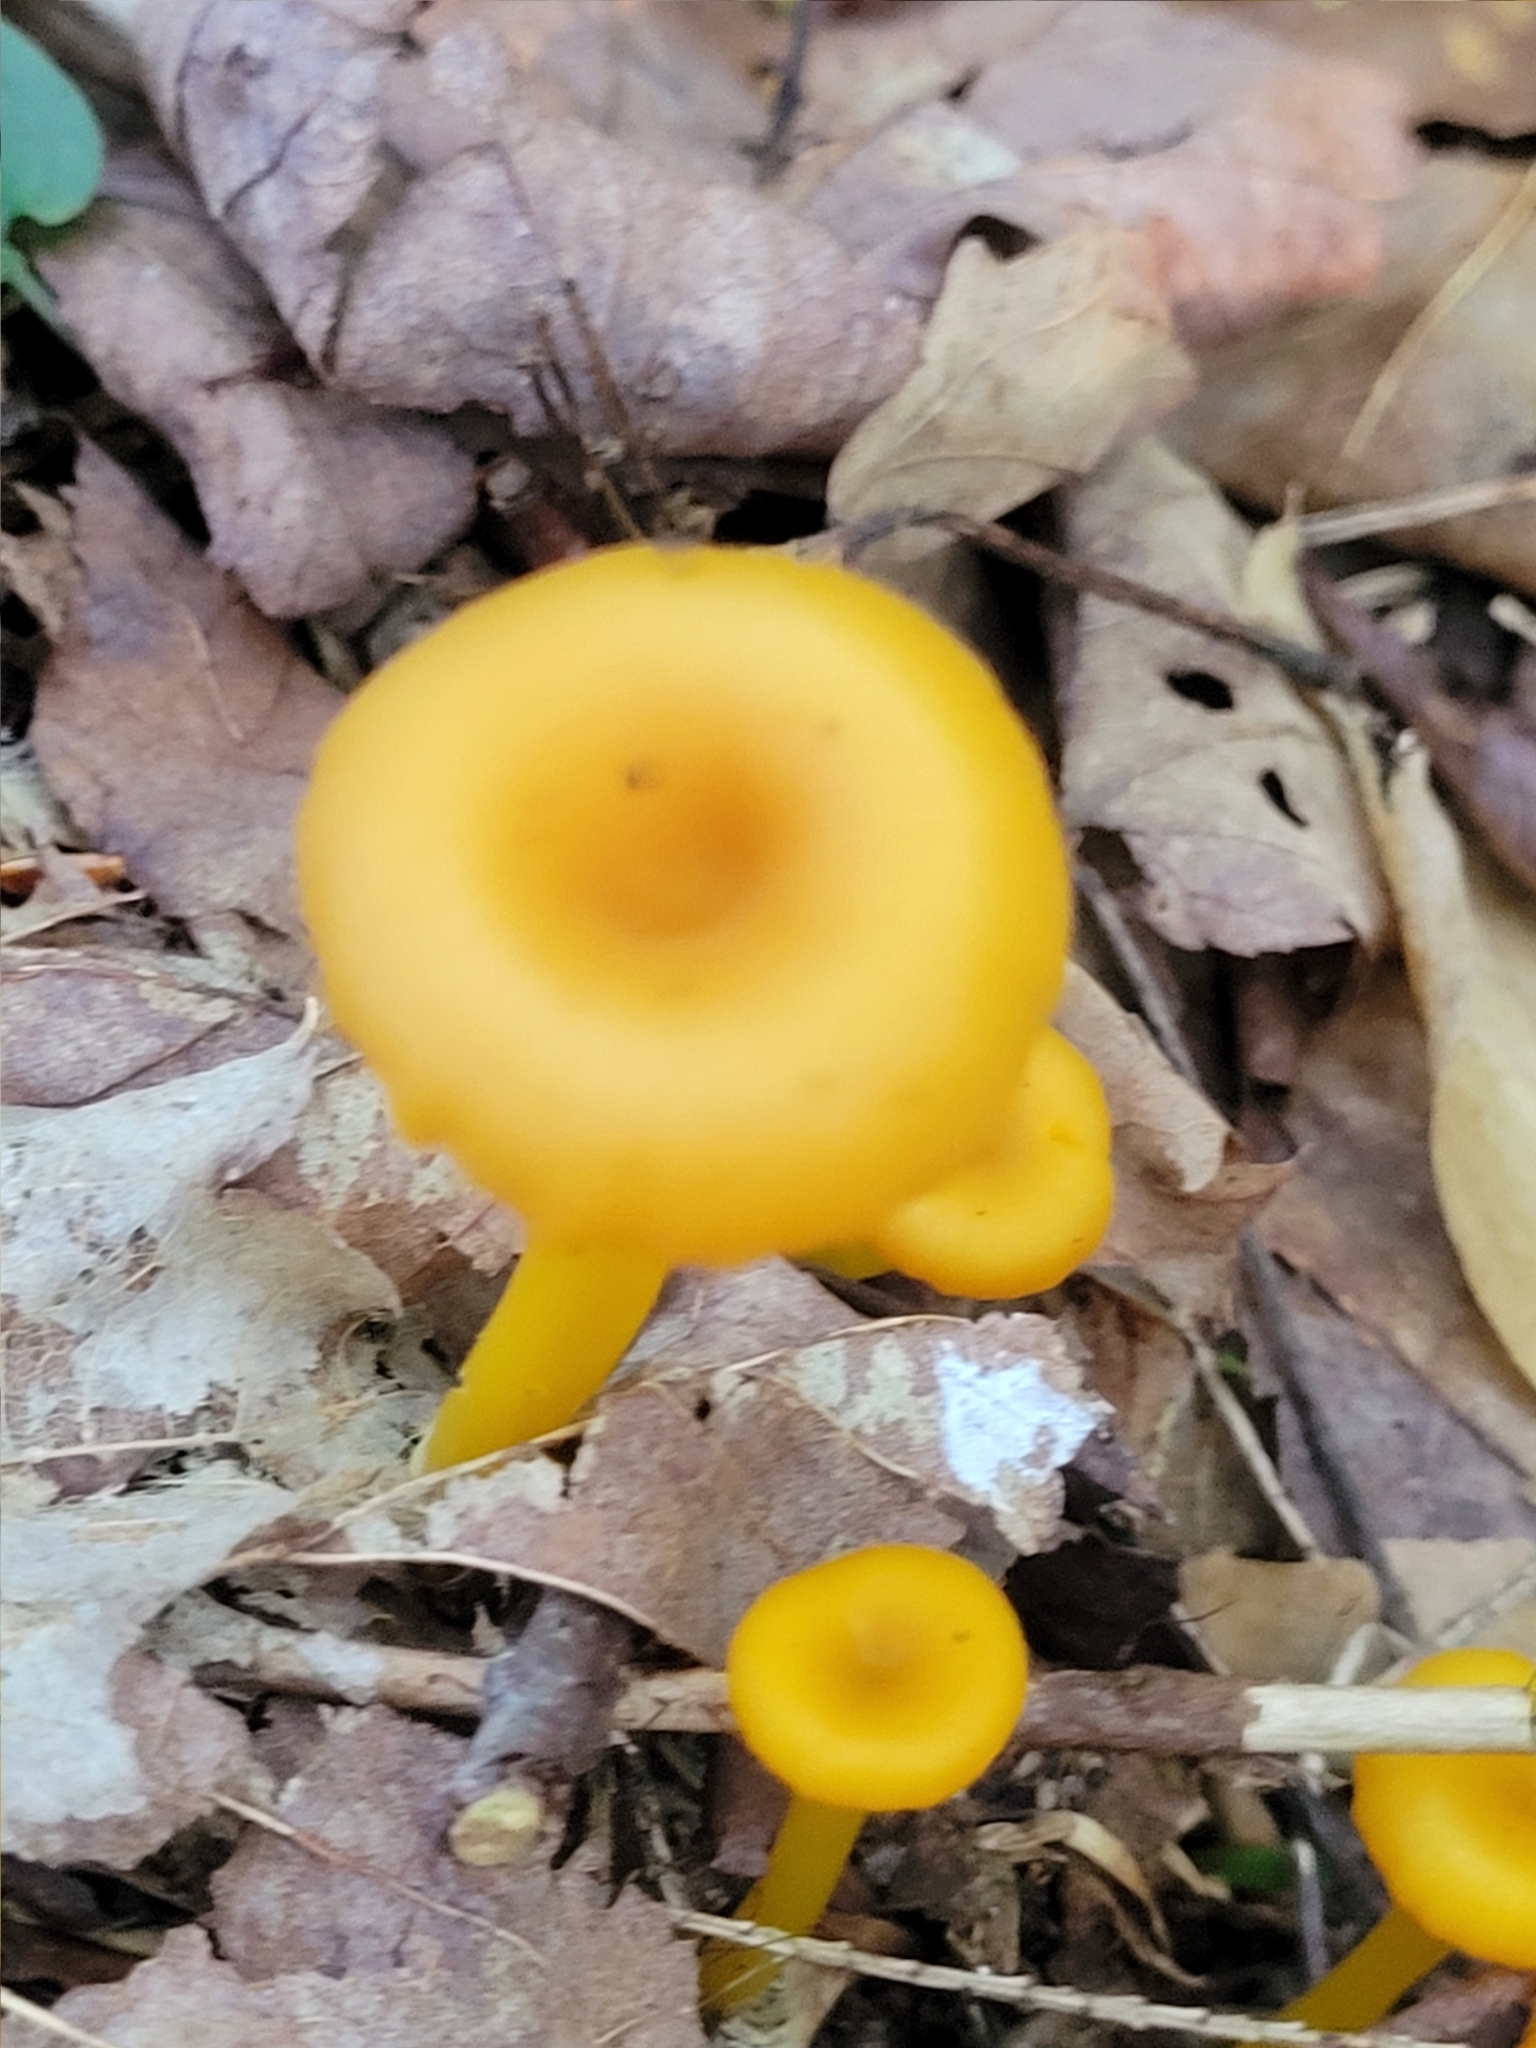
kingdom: Fungi
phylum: Basidiomycota
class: Agaricomycetes
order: Agaricales
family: Hygrophoraceae
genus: Gloioxanthomyces
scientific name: Gloioxanthomyces nitidus
